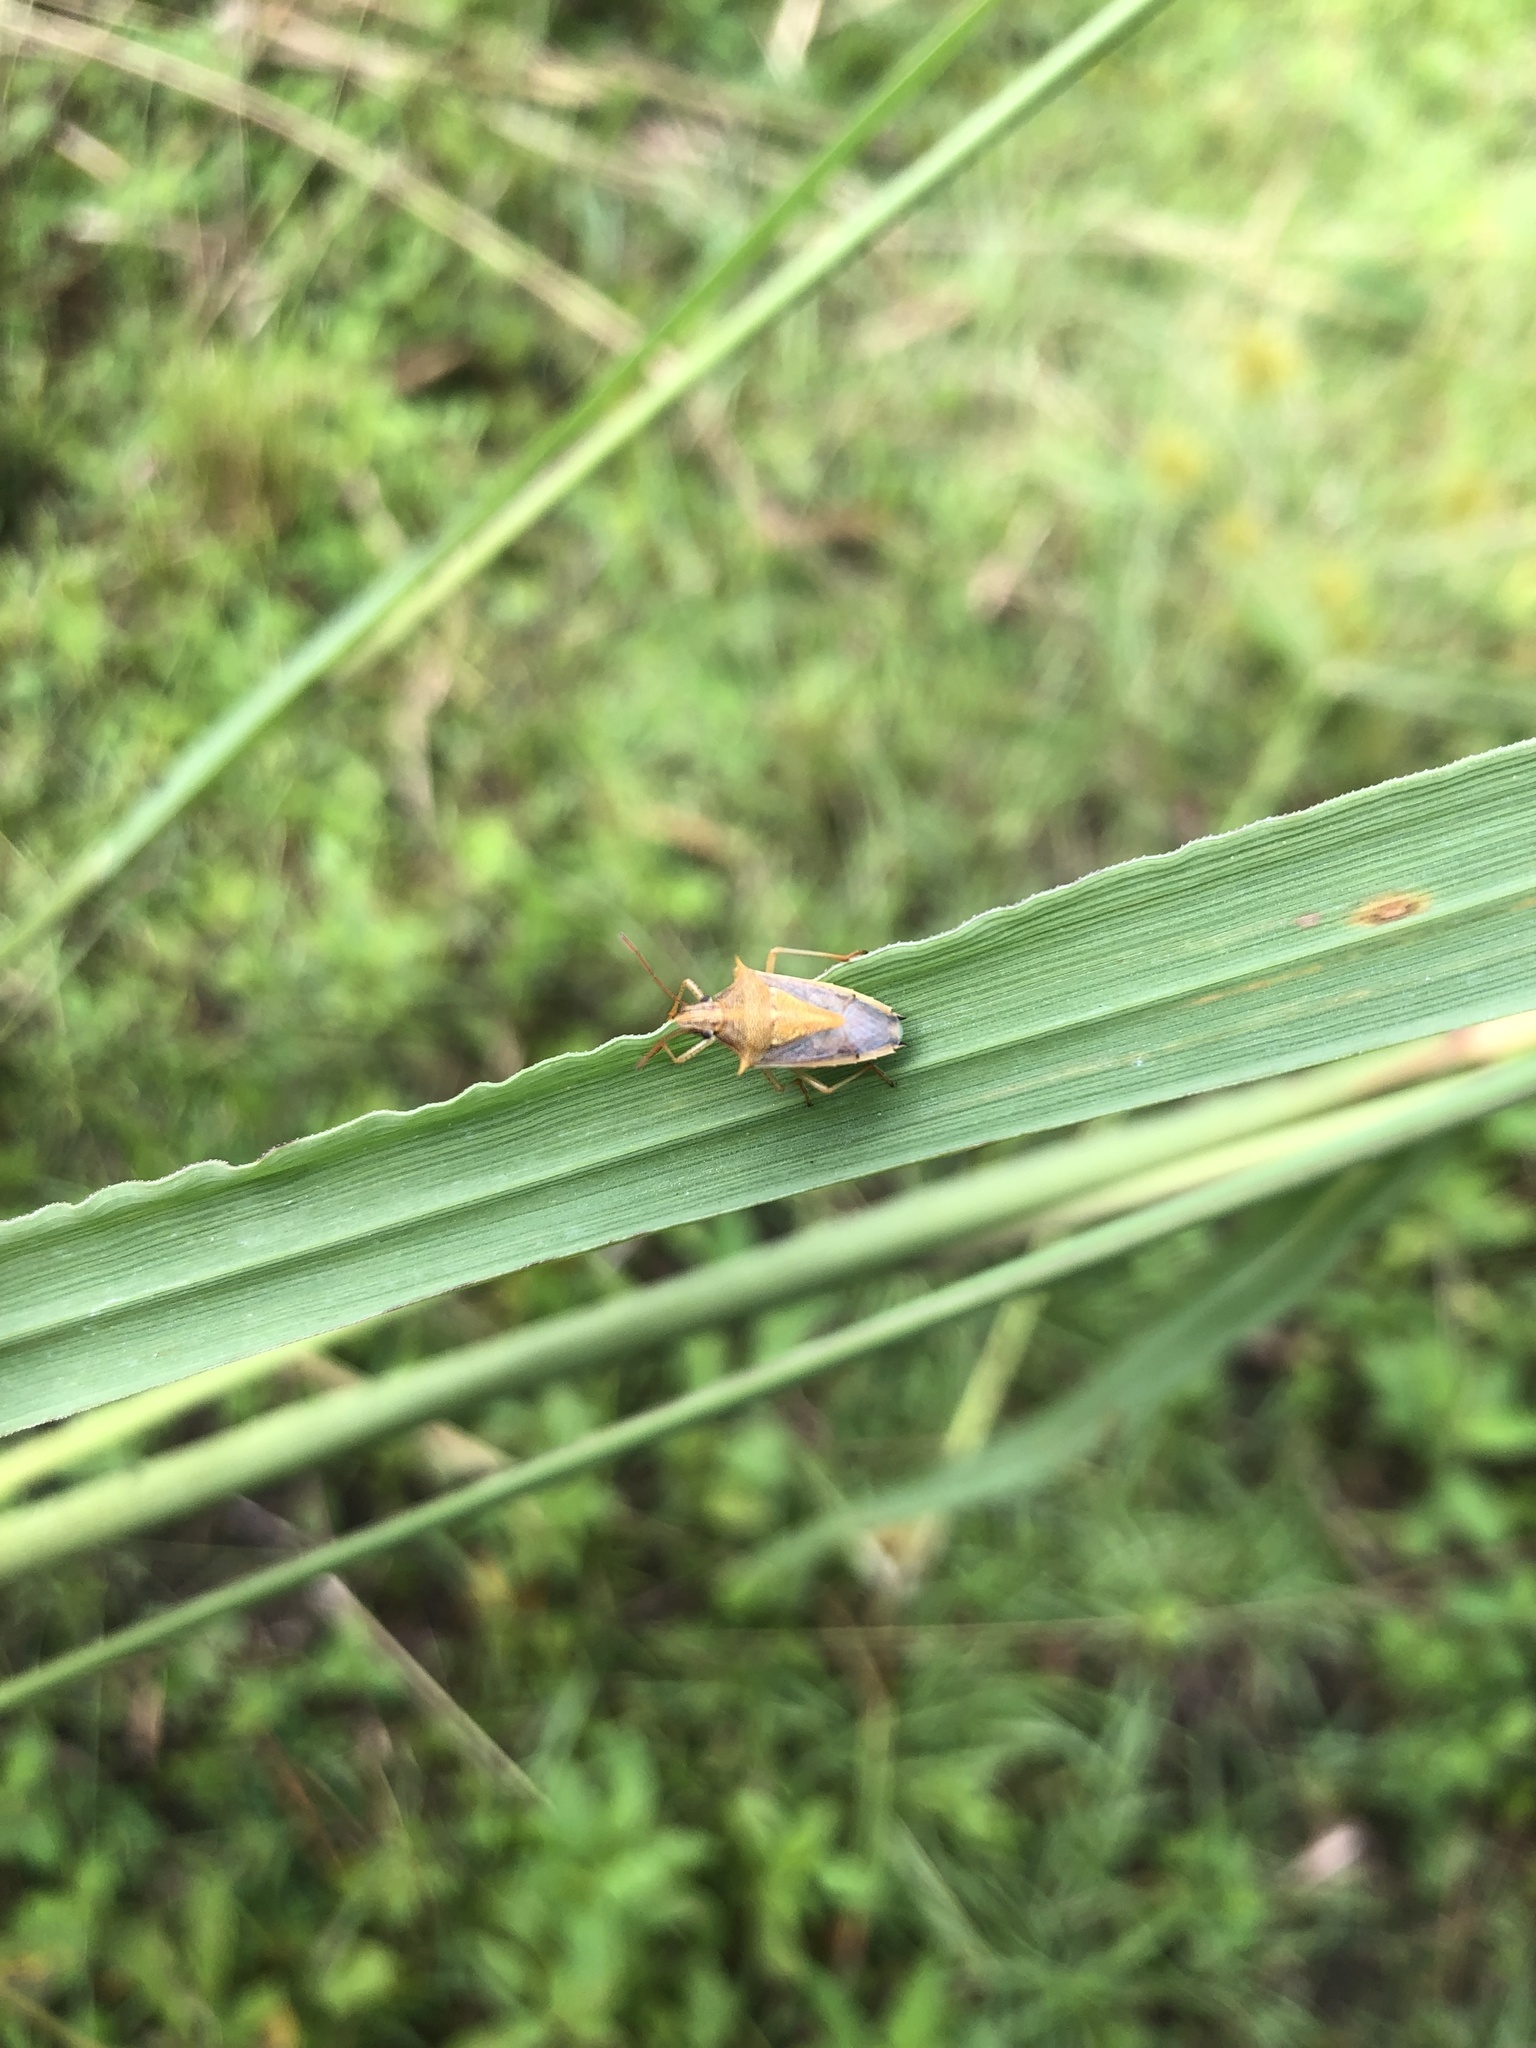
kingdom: Animalia
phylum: Arthropoda
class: Insecta
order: Hemiptera
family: Pentatomidae
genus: Oebalus
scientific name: Oebalus pugnax
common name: Rice stink bug
